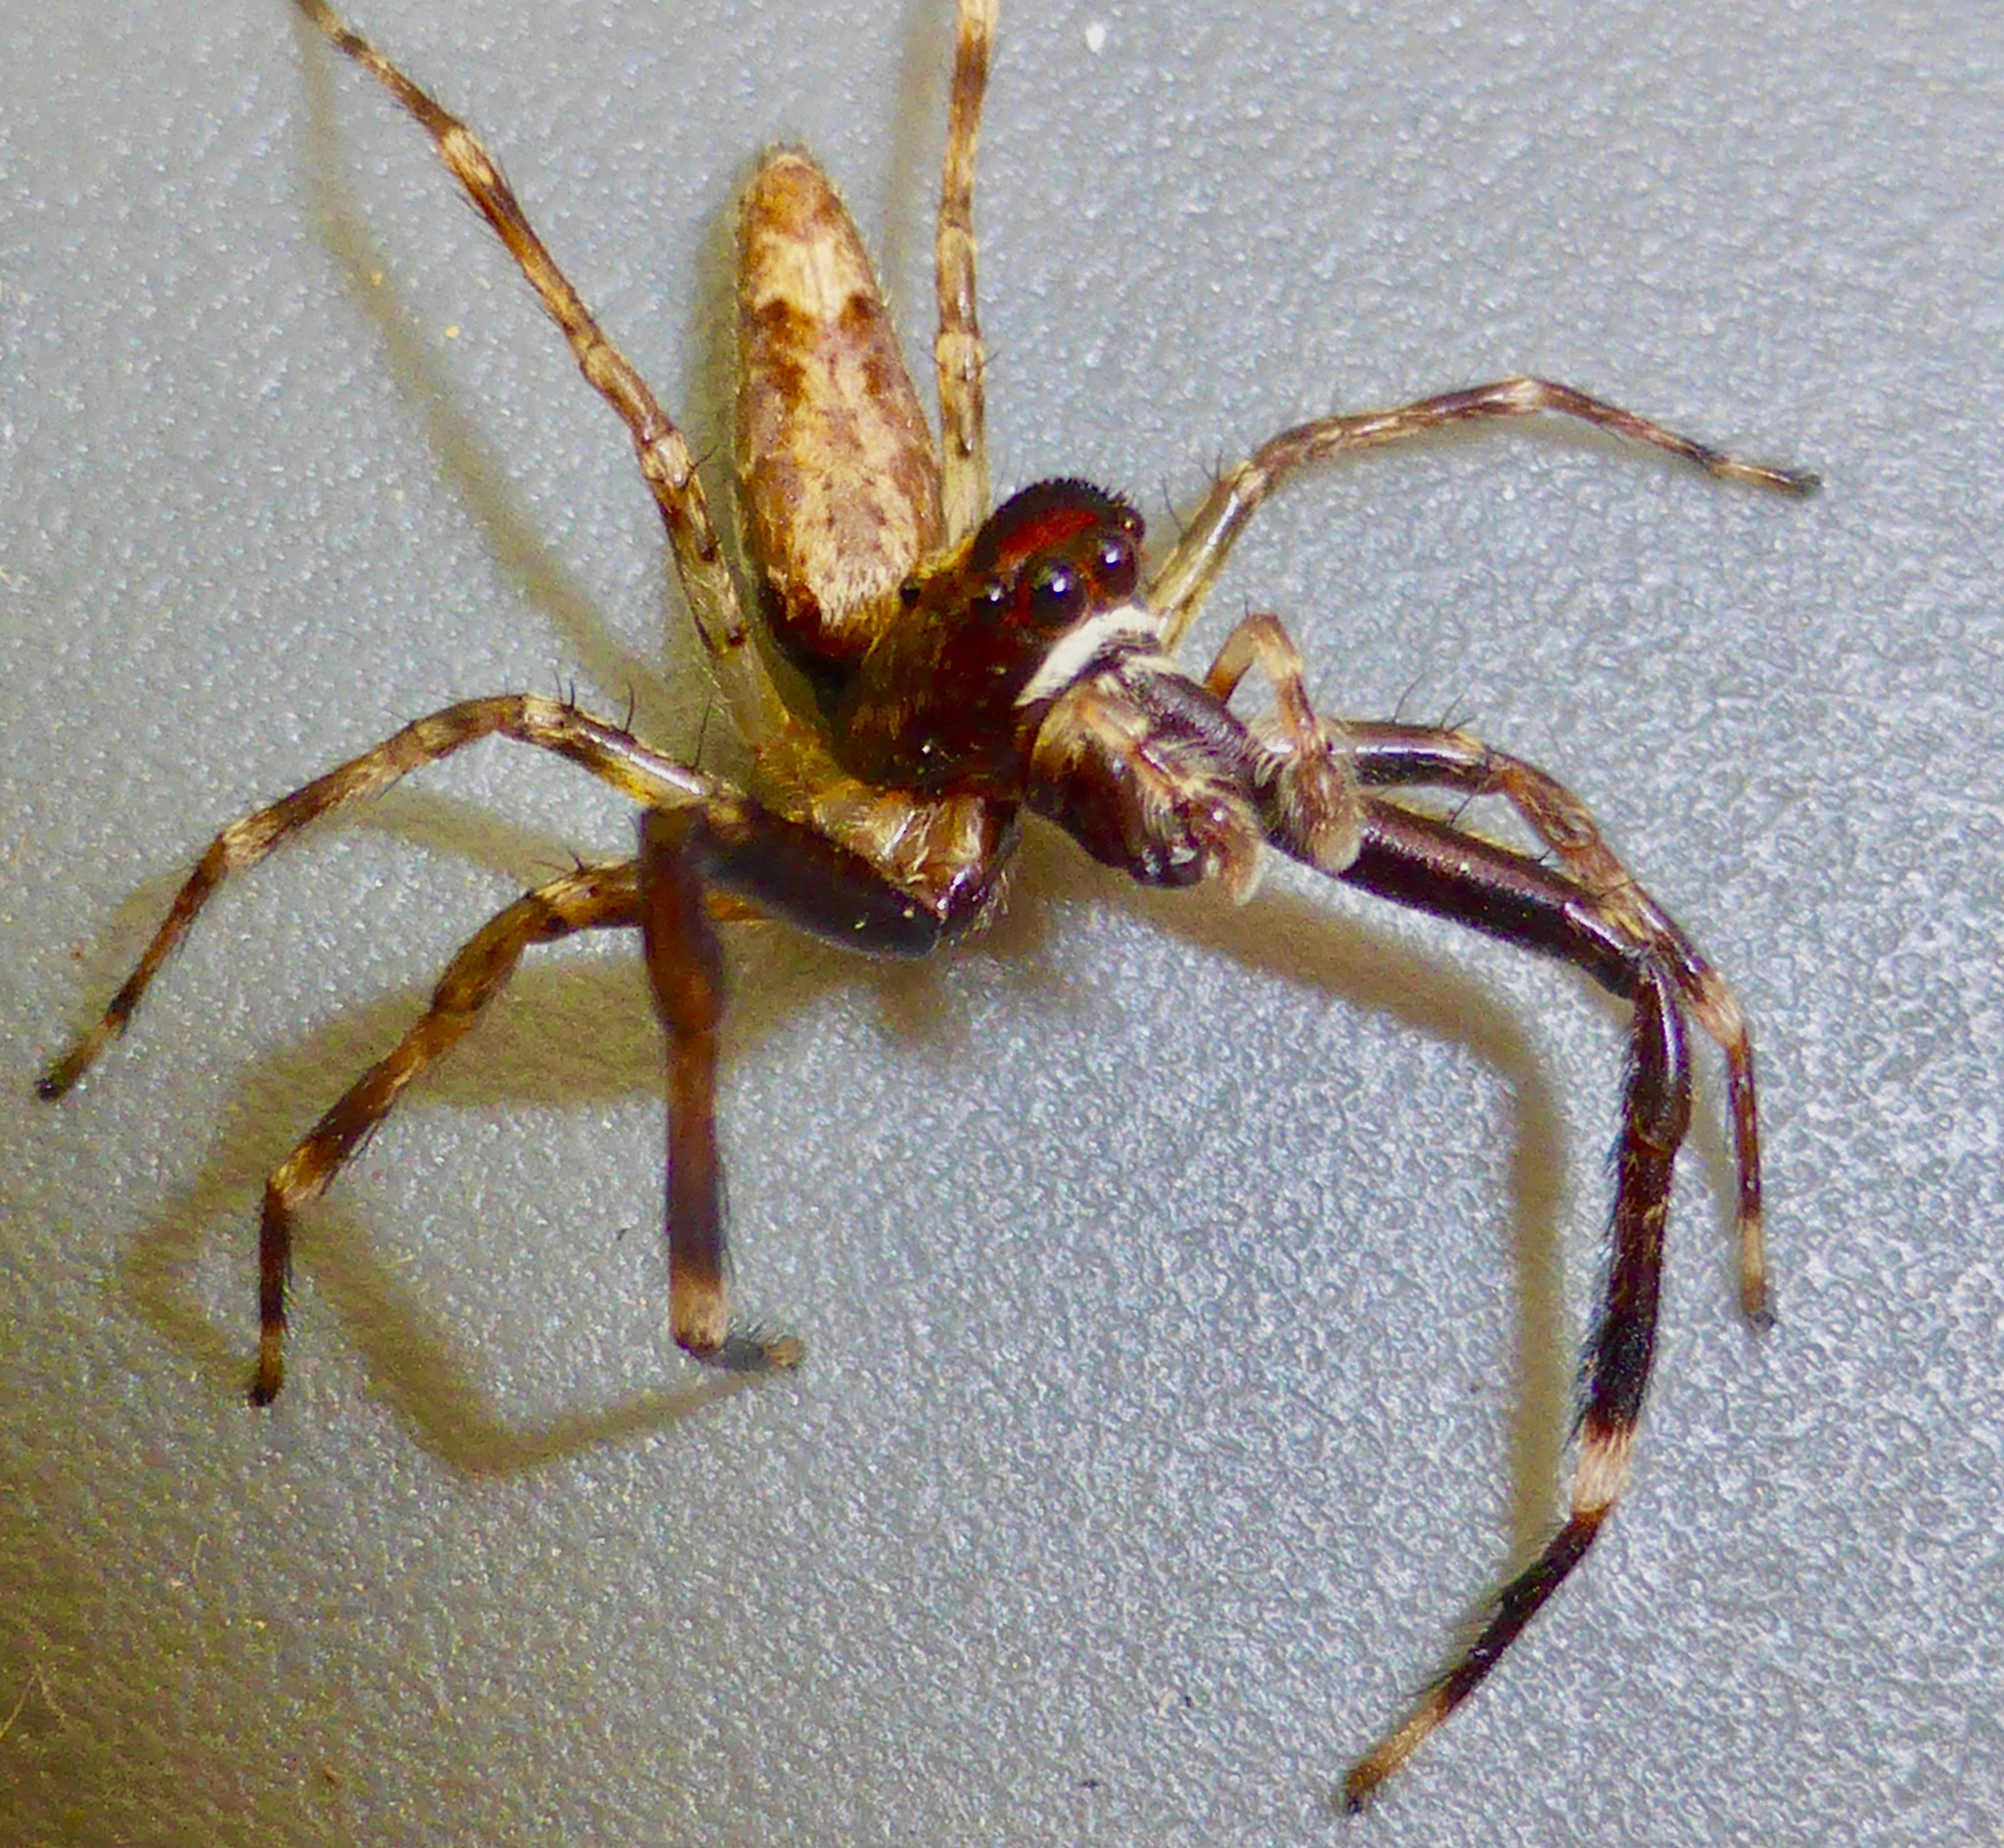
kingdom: Animalia
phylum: Arthropoda
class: Arachnida
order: Araneae
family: Salticidae
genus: Helpis
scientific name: Helpis minitabunda
